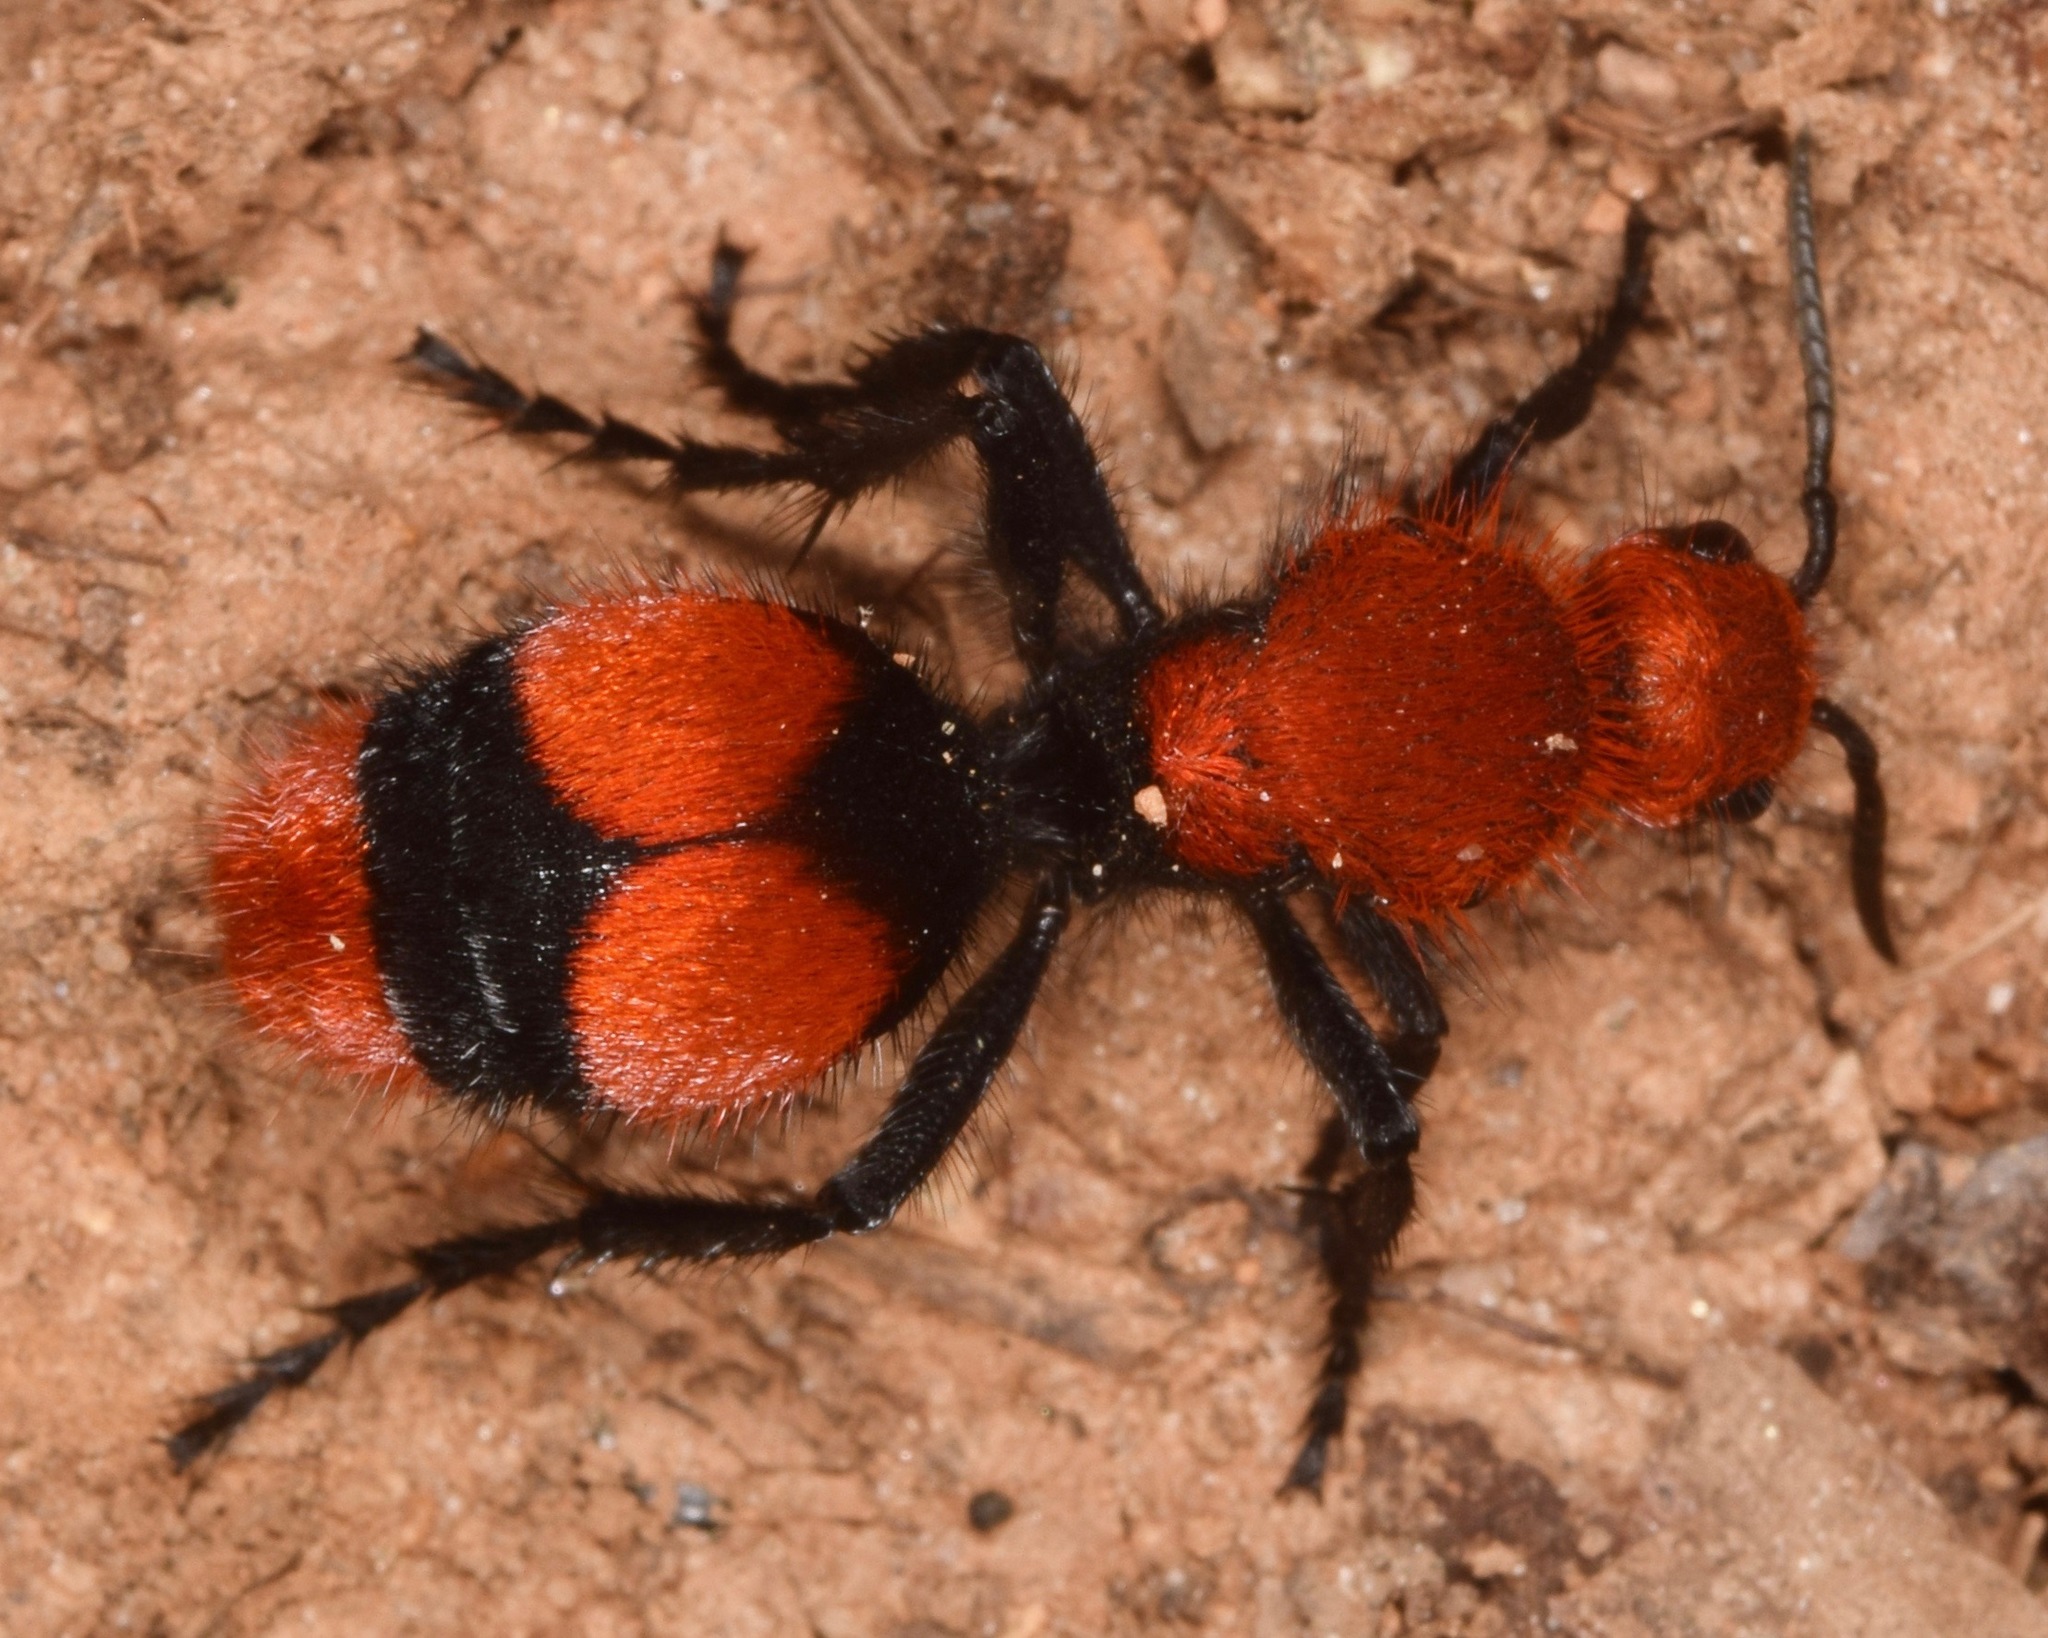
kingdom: Animalia
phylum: Arthropoda
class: Insecta
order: Hymenoptera
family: Mutillidae
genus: Dasymutilla
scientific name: Dasymutilla occidentalis
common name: Common eastern velvet ant
